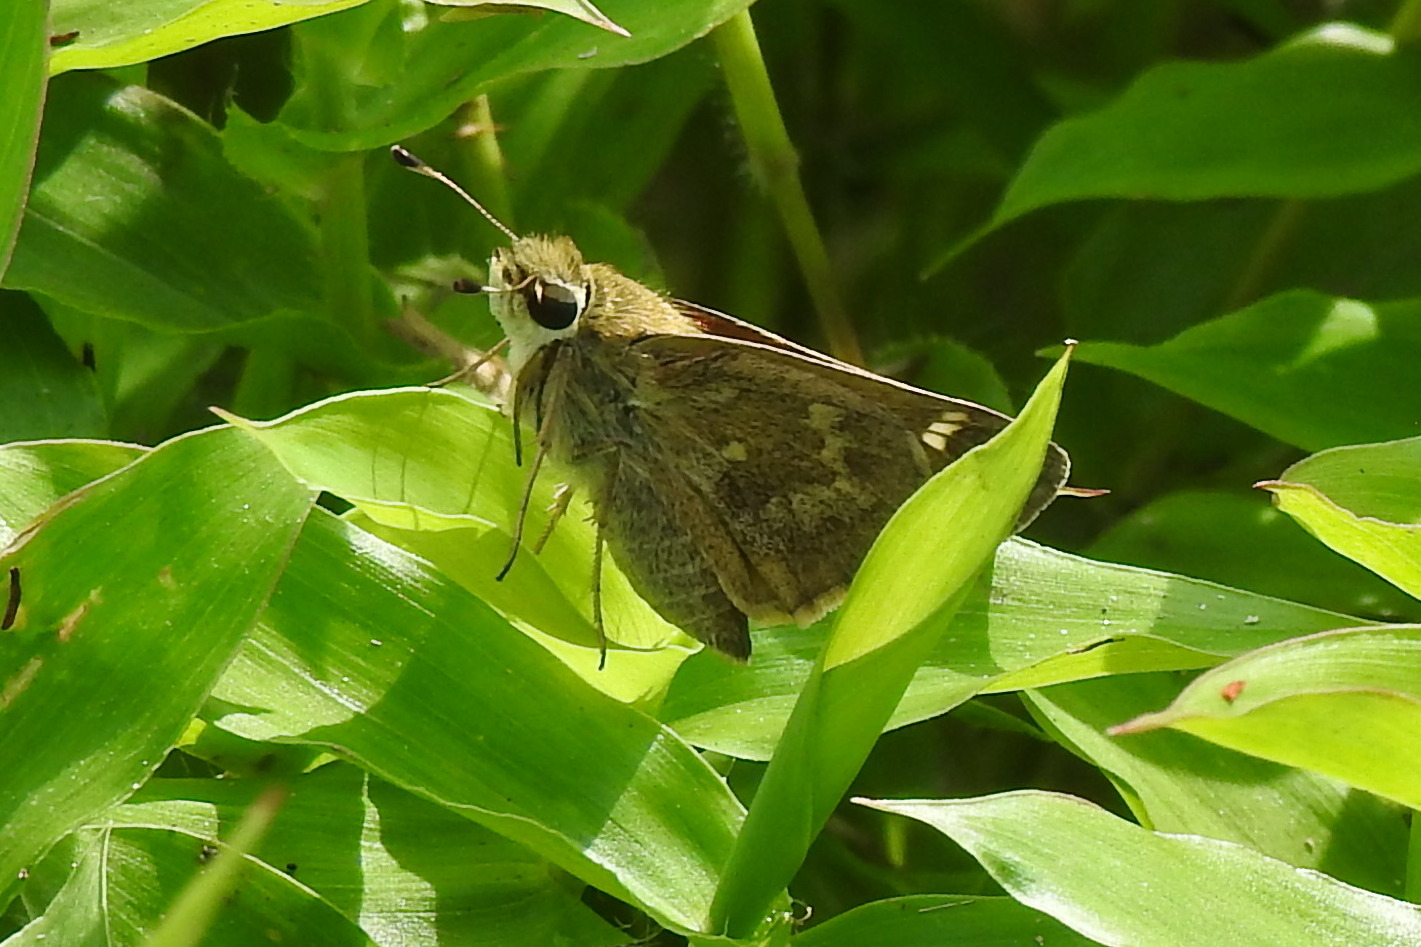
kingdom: Animalia
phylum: Arthropoda
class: Insecta
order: Lepidoptera
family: Hesperiidae
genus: Atalopedes
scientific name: Atalopedes
